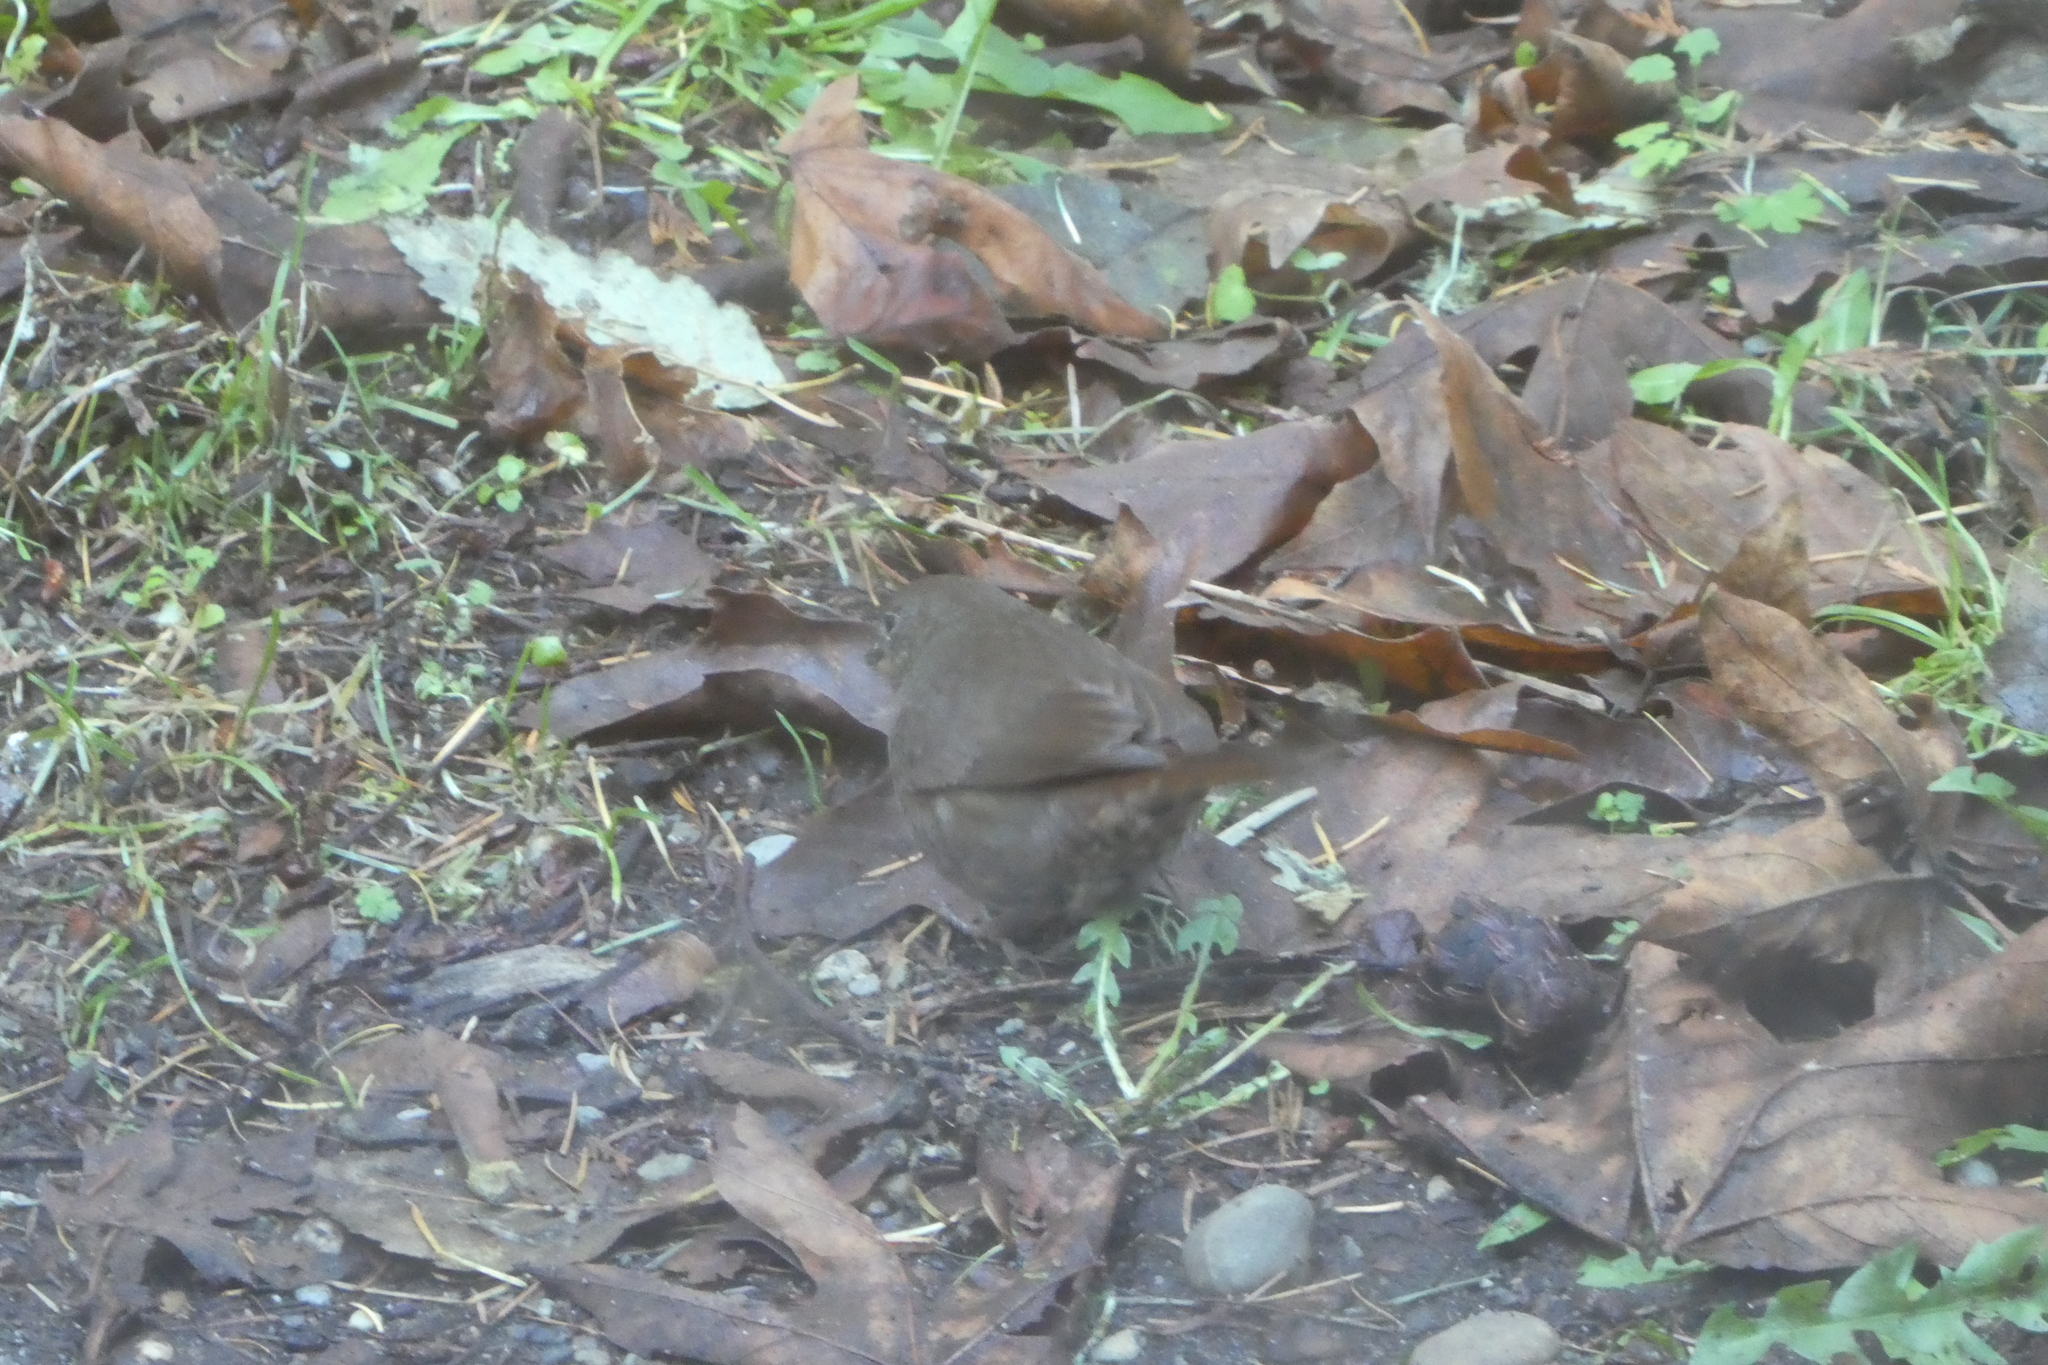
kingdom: Animalia
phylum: Chordata
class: Aves
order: Passeriformes
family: Passerellidae
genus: Passerella
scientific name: Passerella iliaca
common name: Fox sparrow
